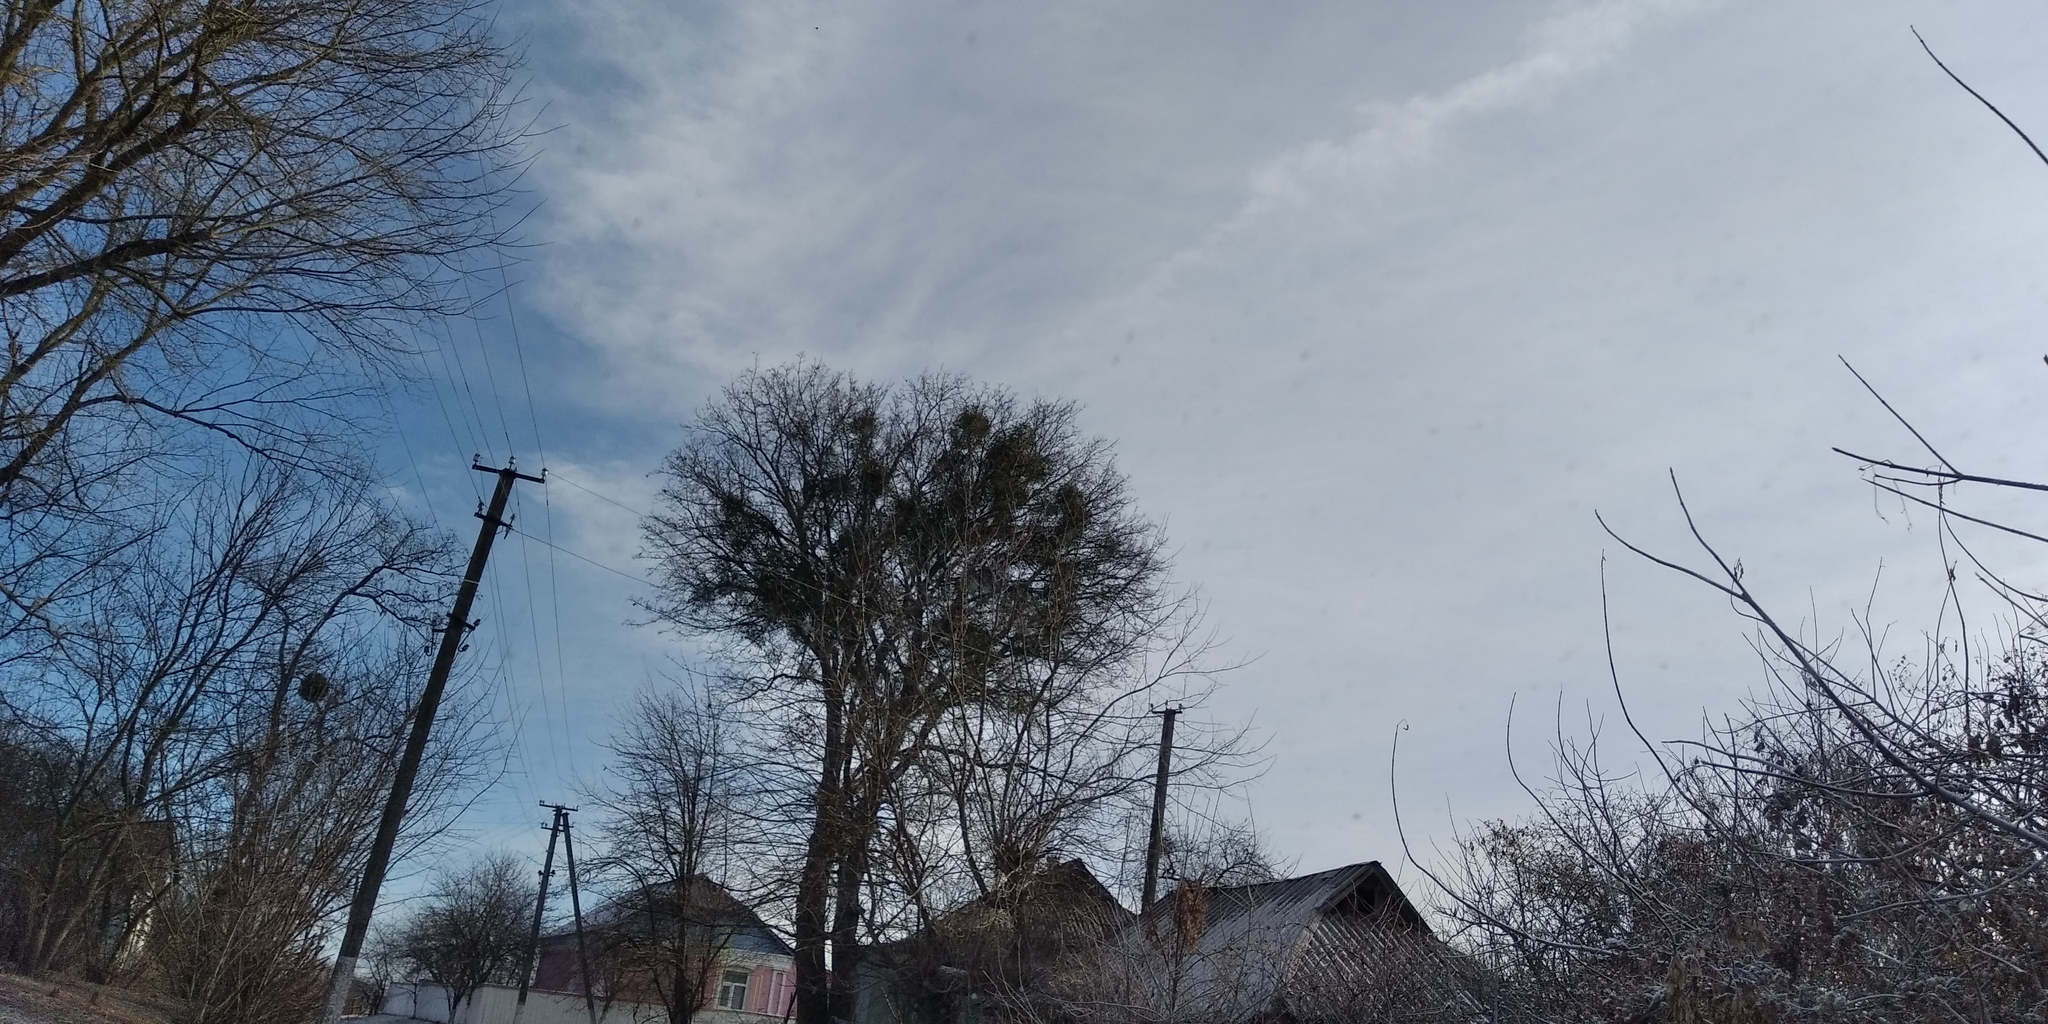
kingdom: Plantae
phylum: Tracheophyta
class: Magnoliopsida
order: Santalales
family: Viscaceae
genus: Viscum
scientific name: Viscum album
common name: Mistletoe
